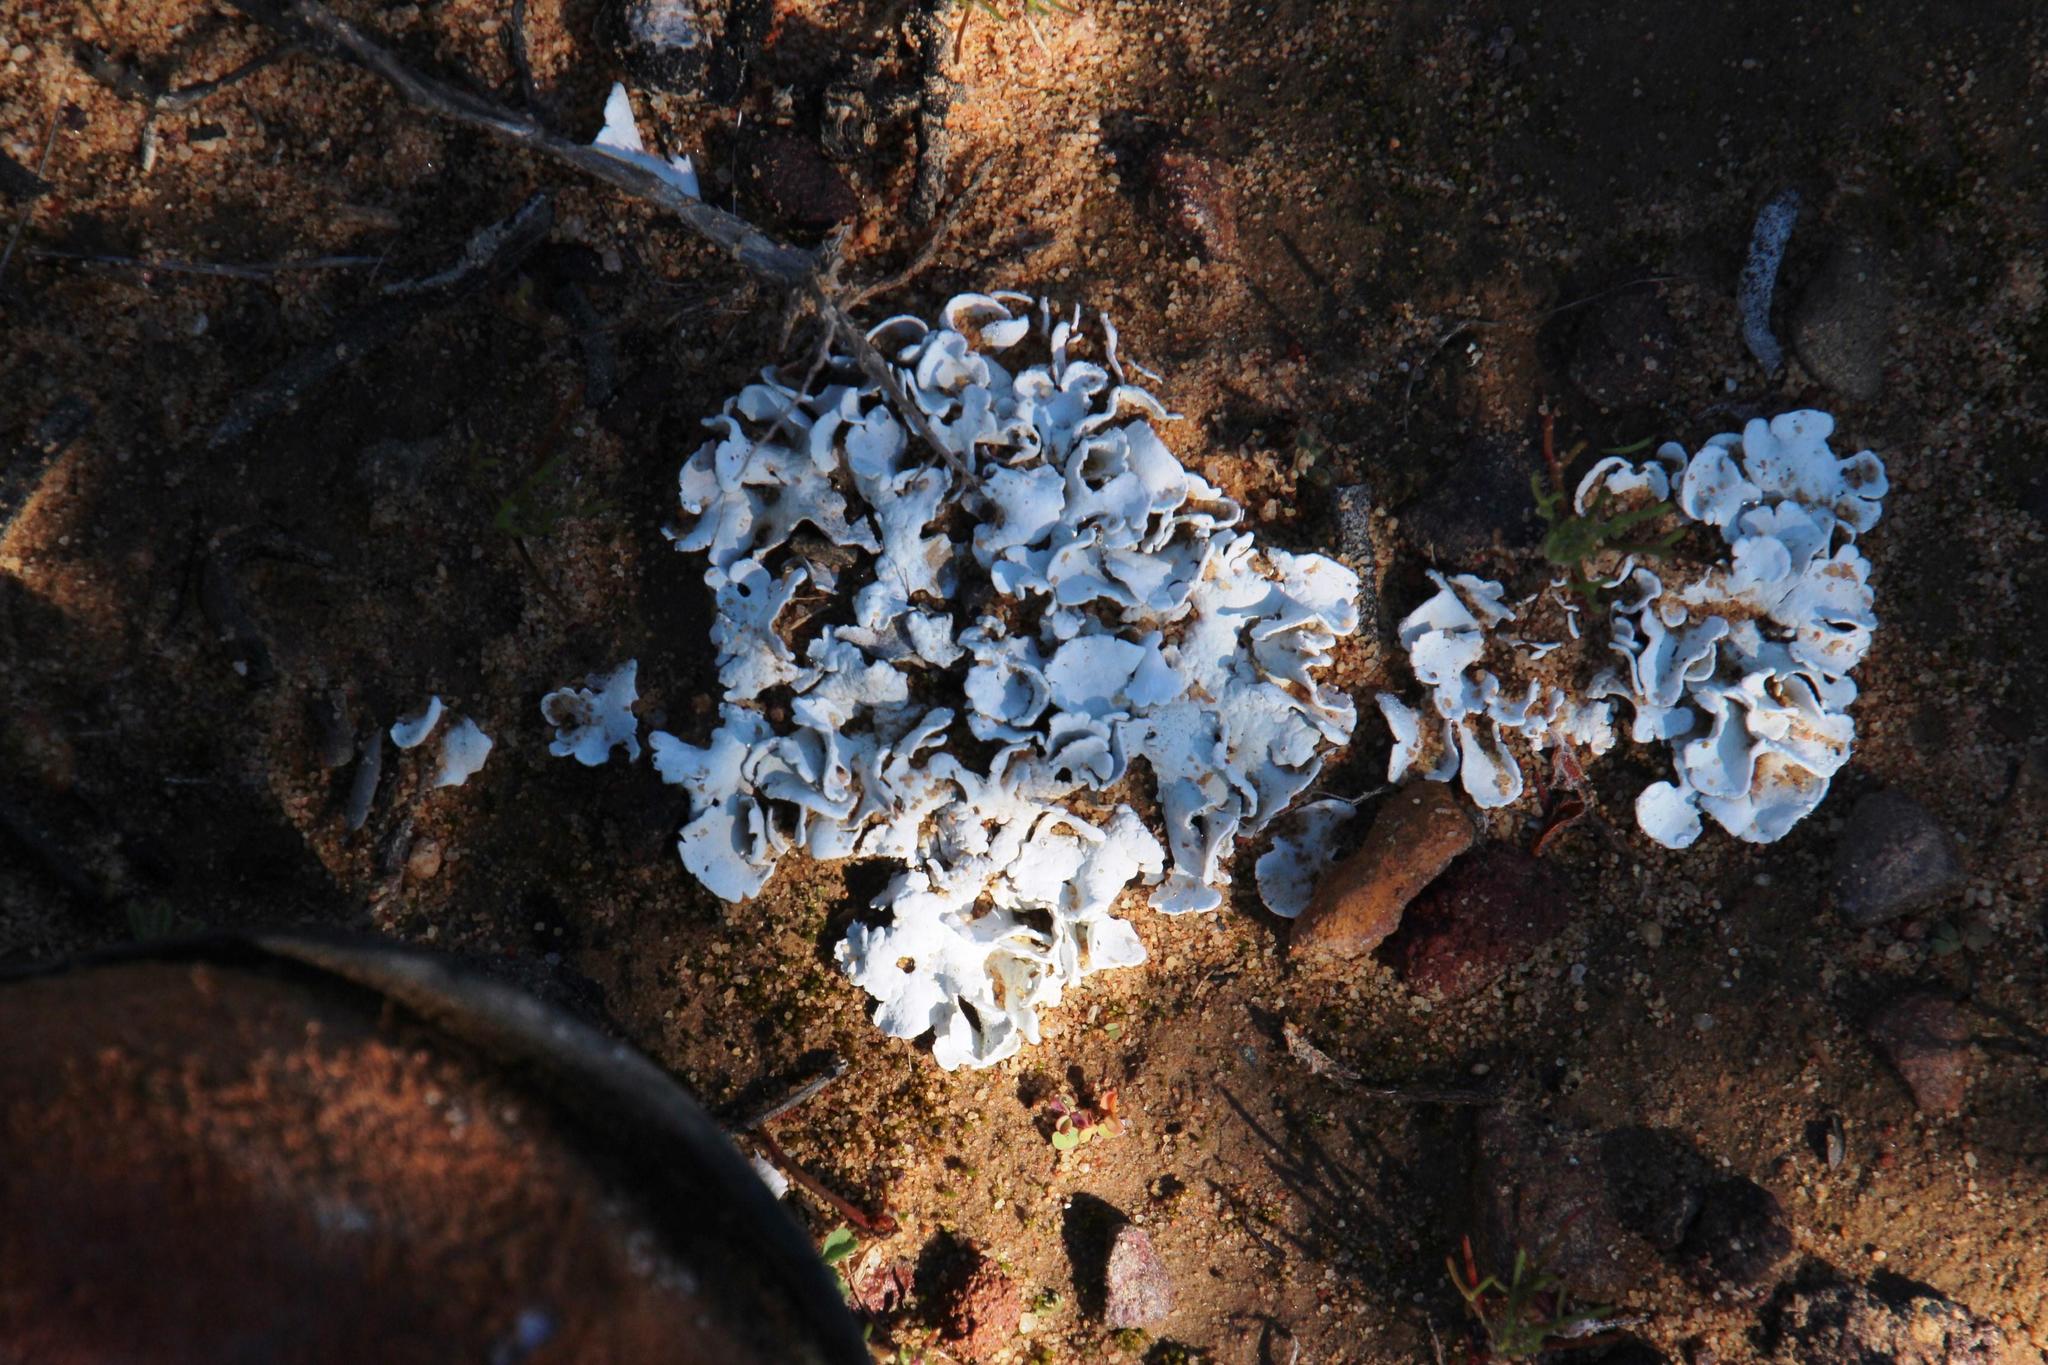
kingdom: Fungi
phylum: Ascomycota
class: Lecanoromycetes
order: Pertusariales
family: Icmadophilaceae
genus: Siphula
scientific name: Siphula
